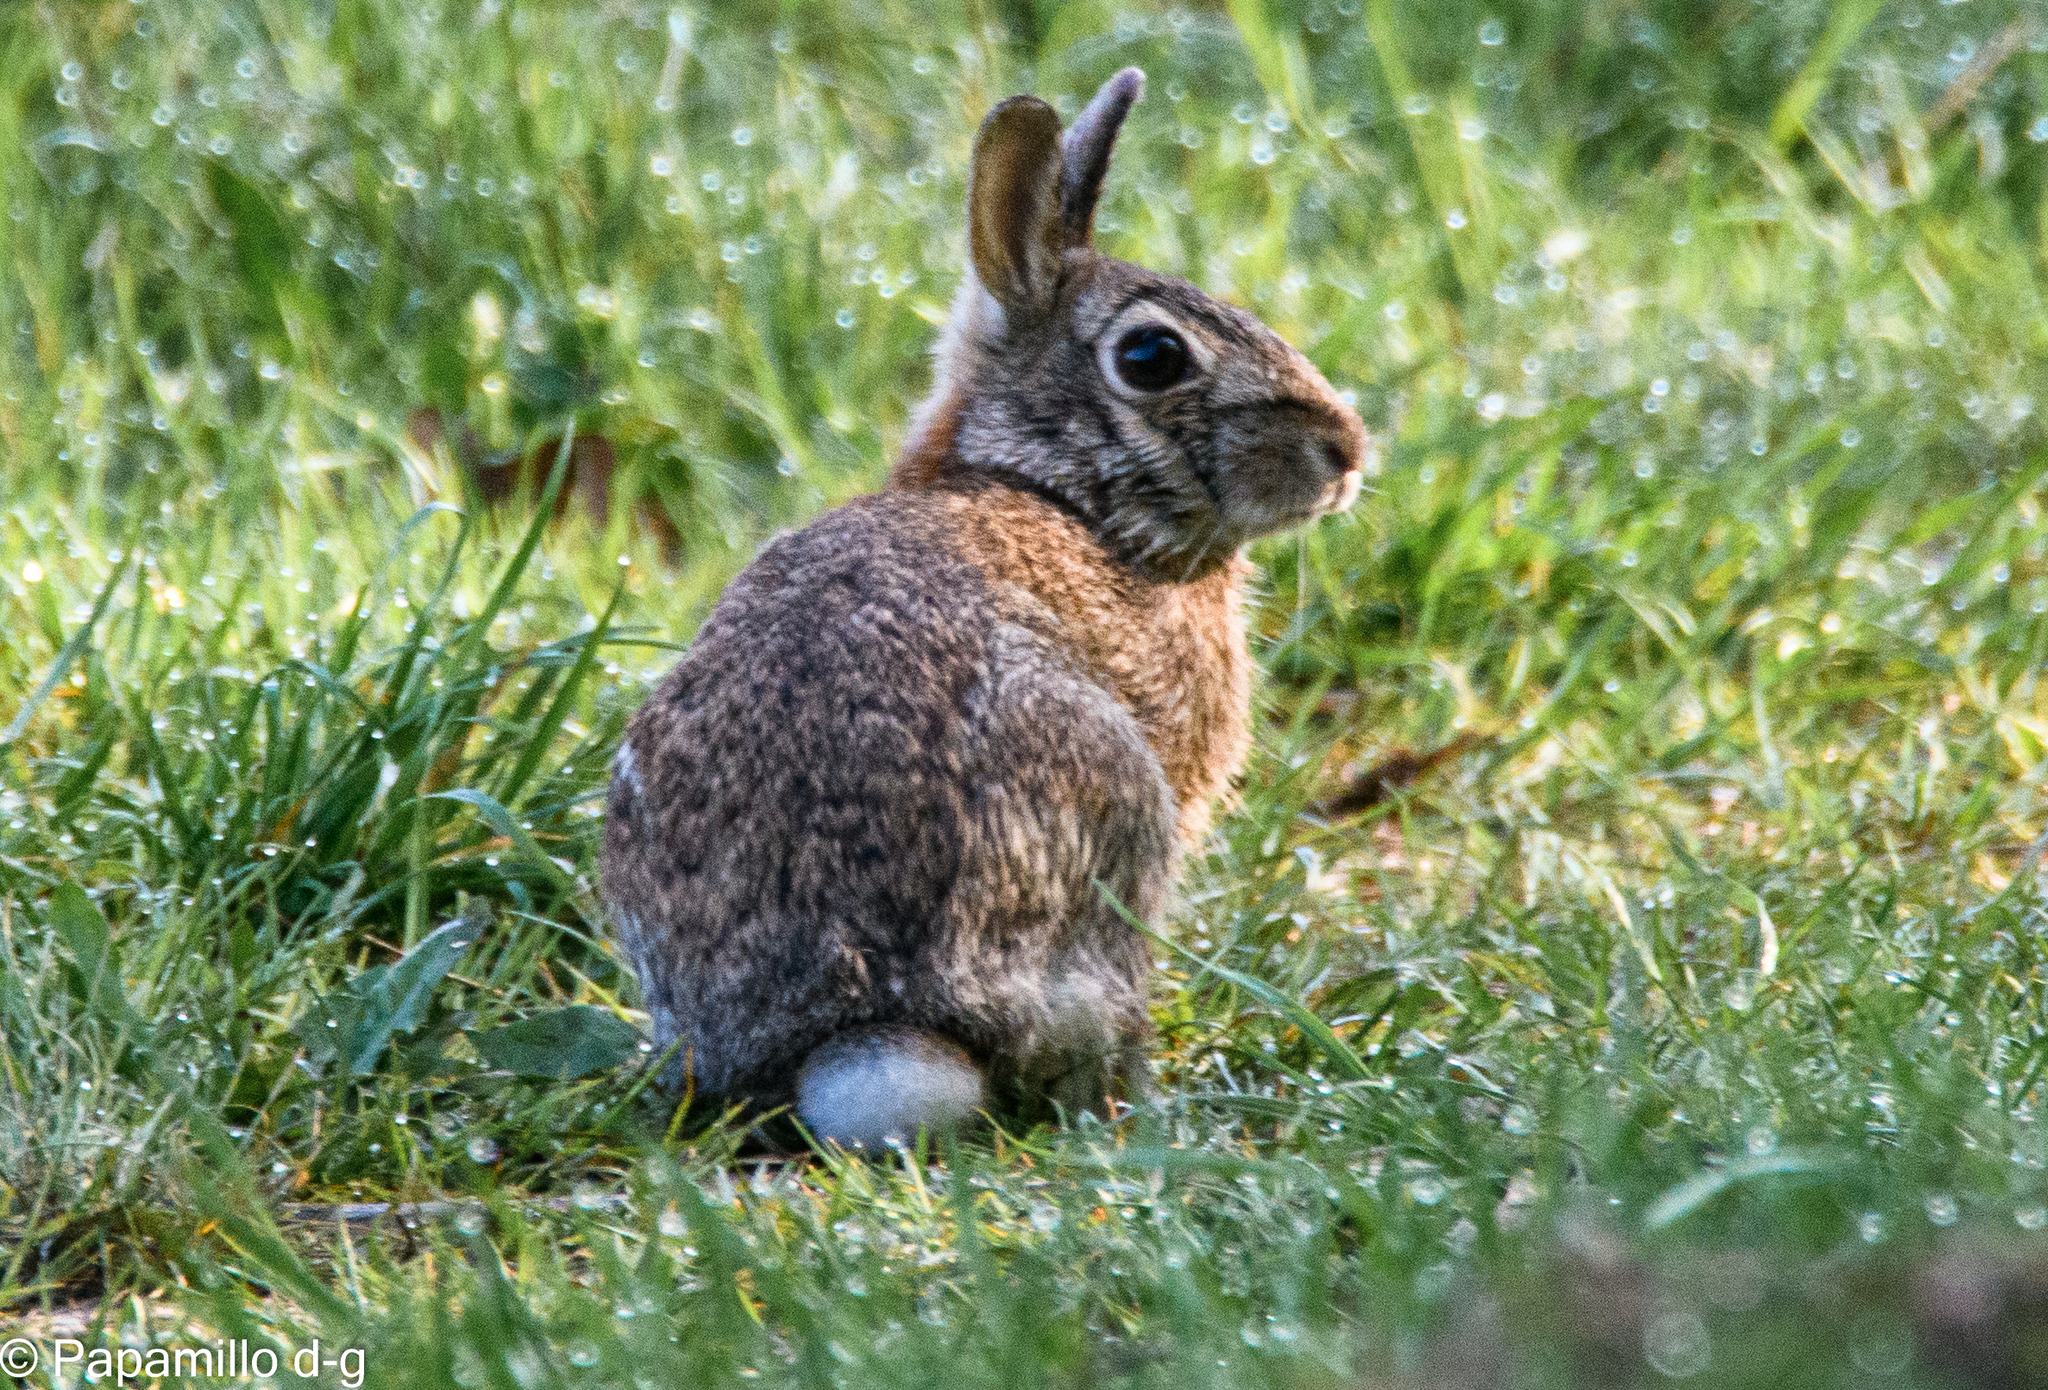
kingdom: Animalia
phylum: Chordata
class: Mammalia
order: Lagomorpha
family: Leporidae
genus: Sylvilagus
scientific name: Sylvilagus floridanus
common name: Eastern cottontail
